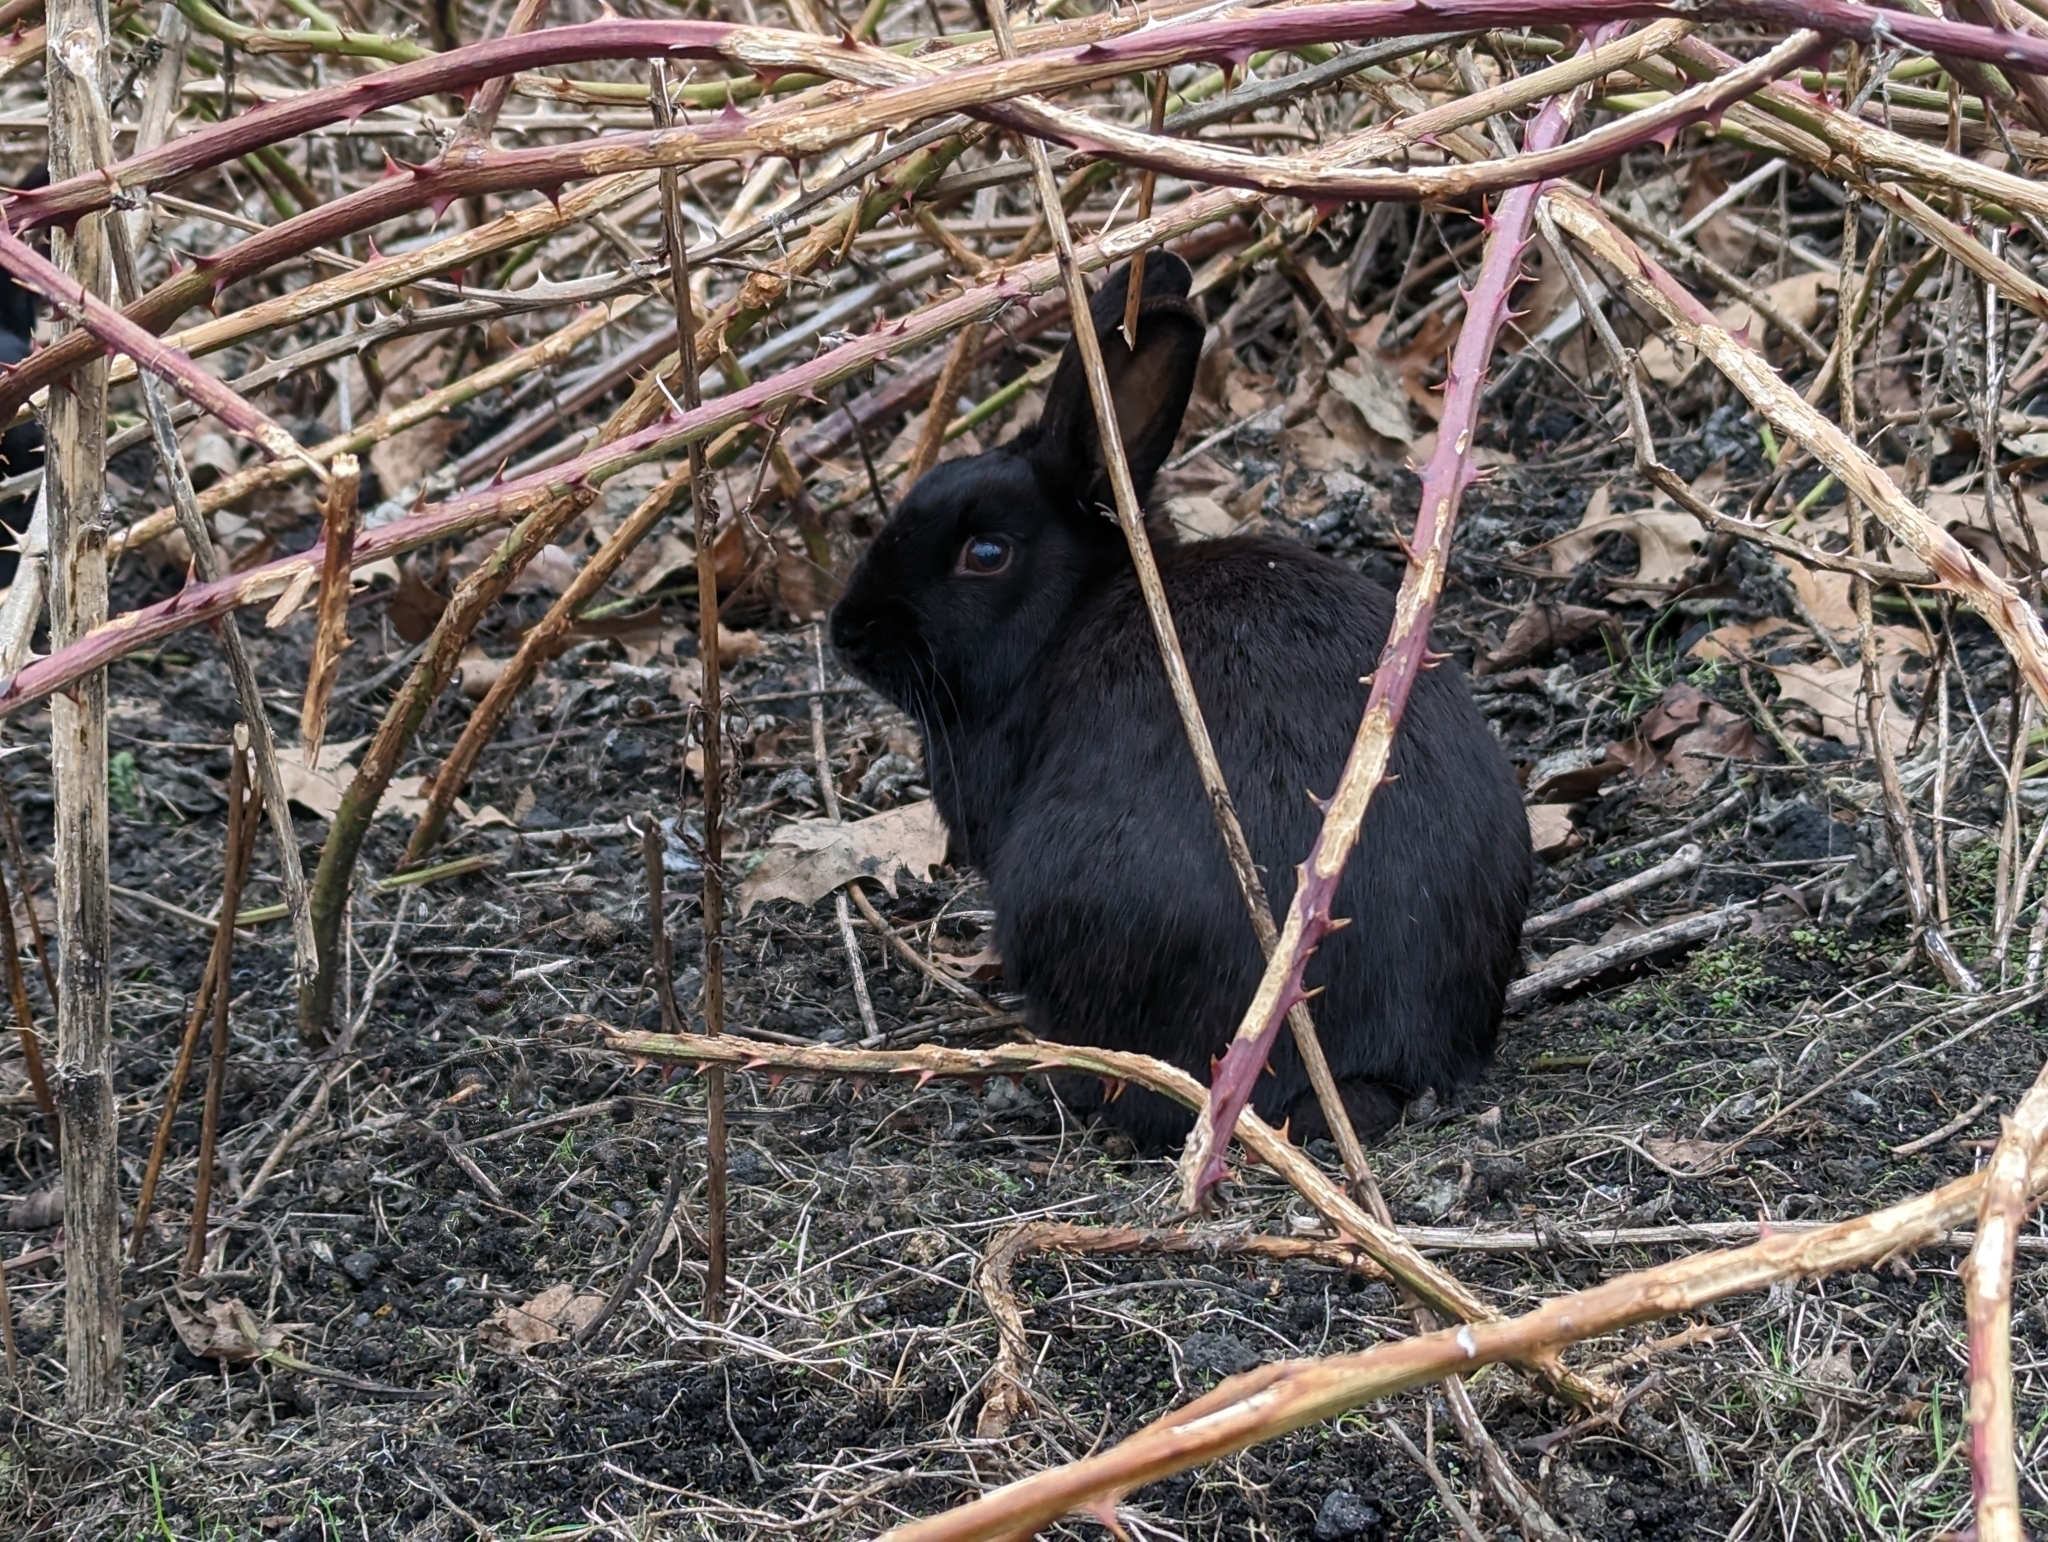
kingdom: Animalia
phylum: Chordata
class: Mammalia
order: Lagomorpha
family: Leporidae
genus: Oryctolagus
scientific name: Oryctolagus cuniculus
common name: European rabbit
